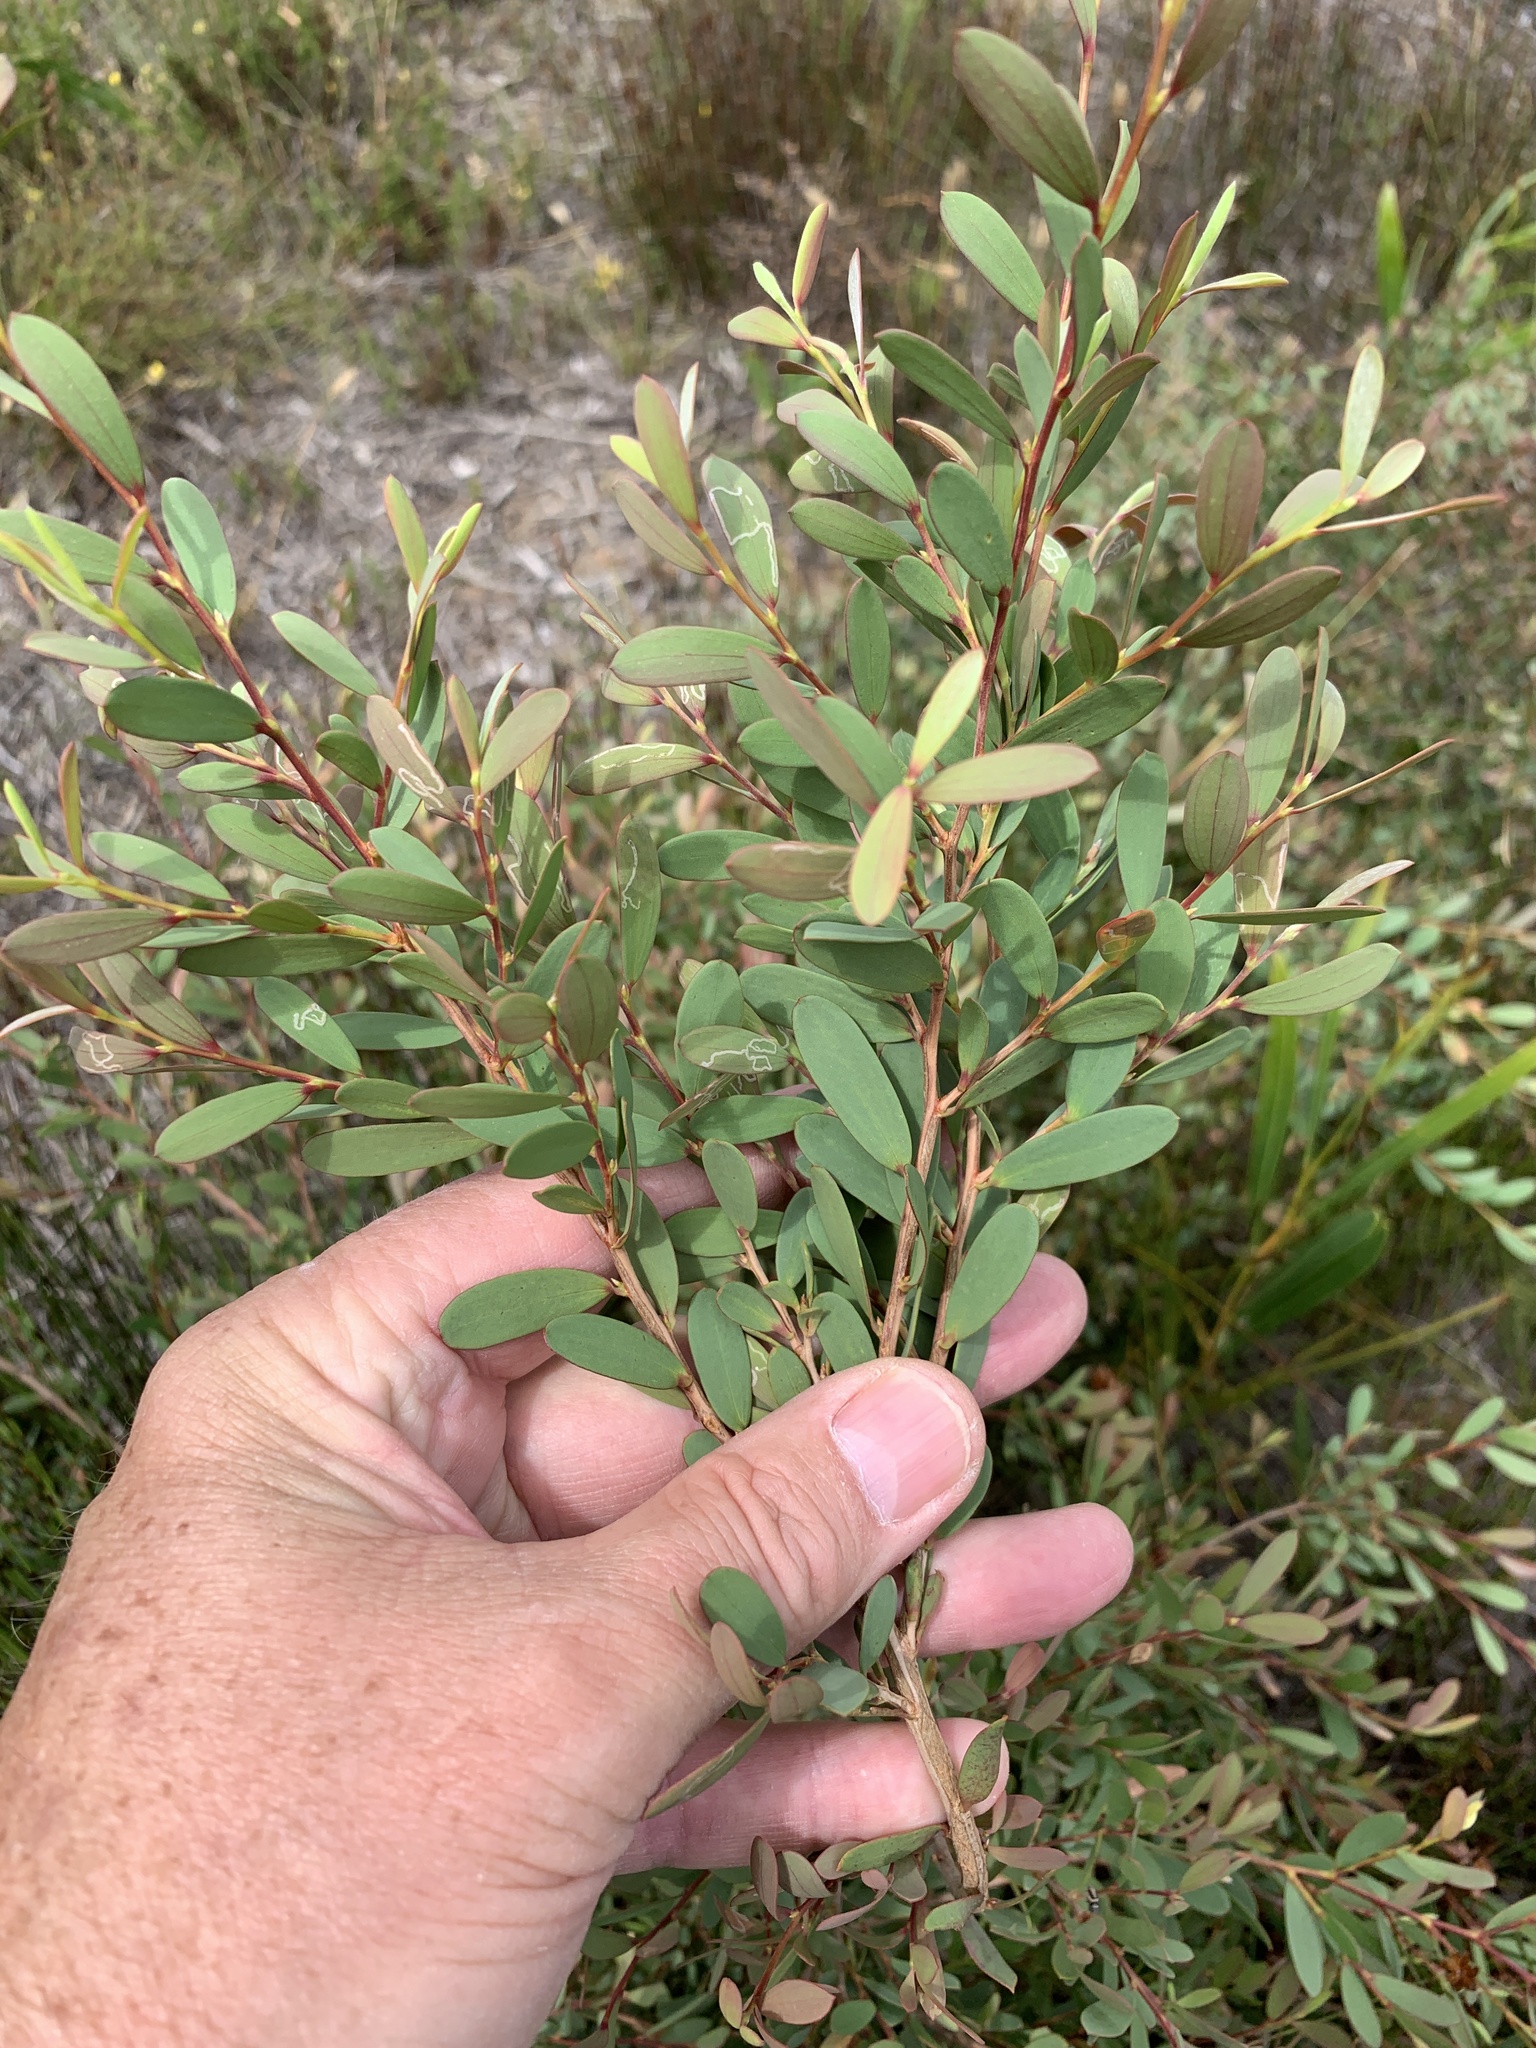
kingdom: Plantae
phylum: Tracheophyta
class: Magnoliopsida
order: Myrtales
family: Myrtaceae
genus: Leptospermum
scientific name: Leptospermum laevigatum
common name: Australian teatree
